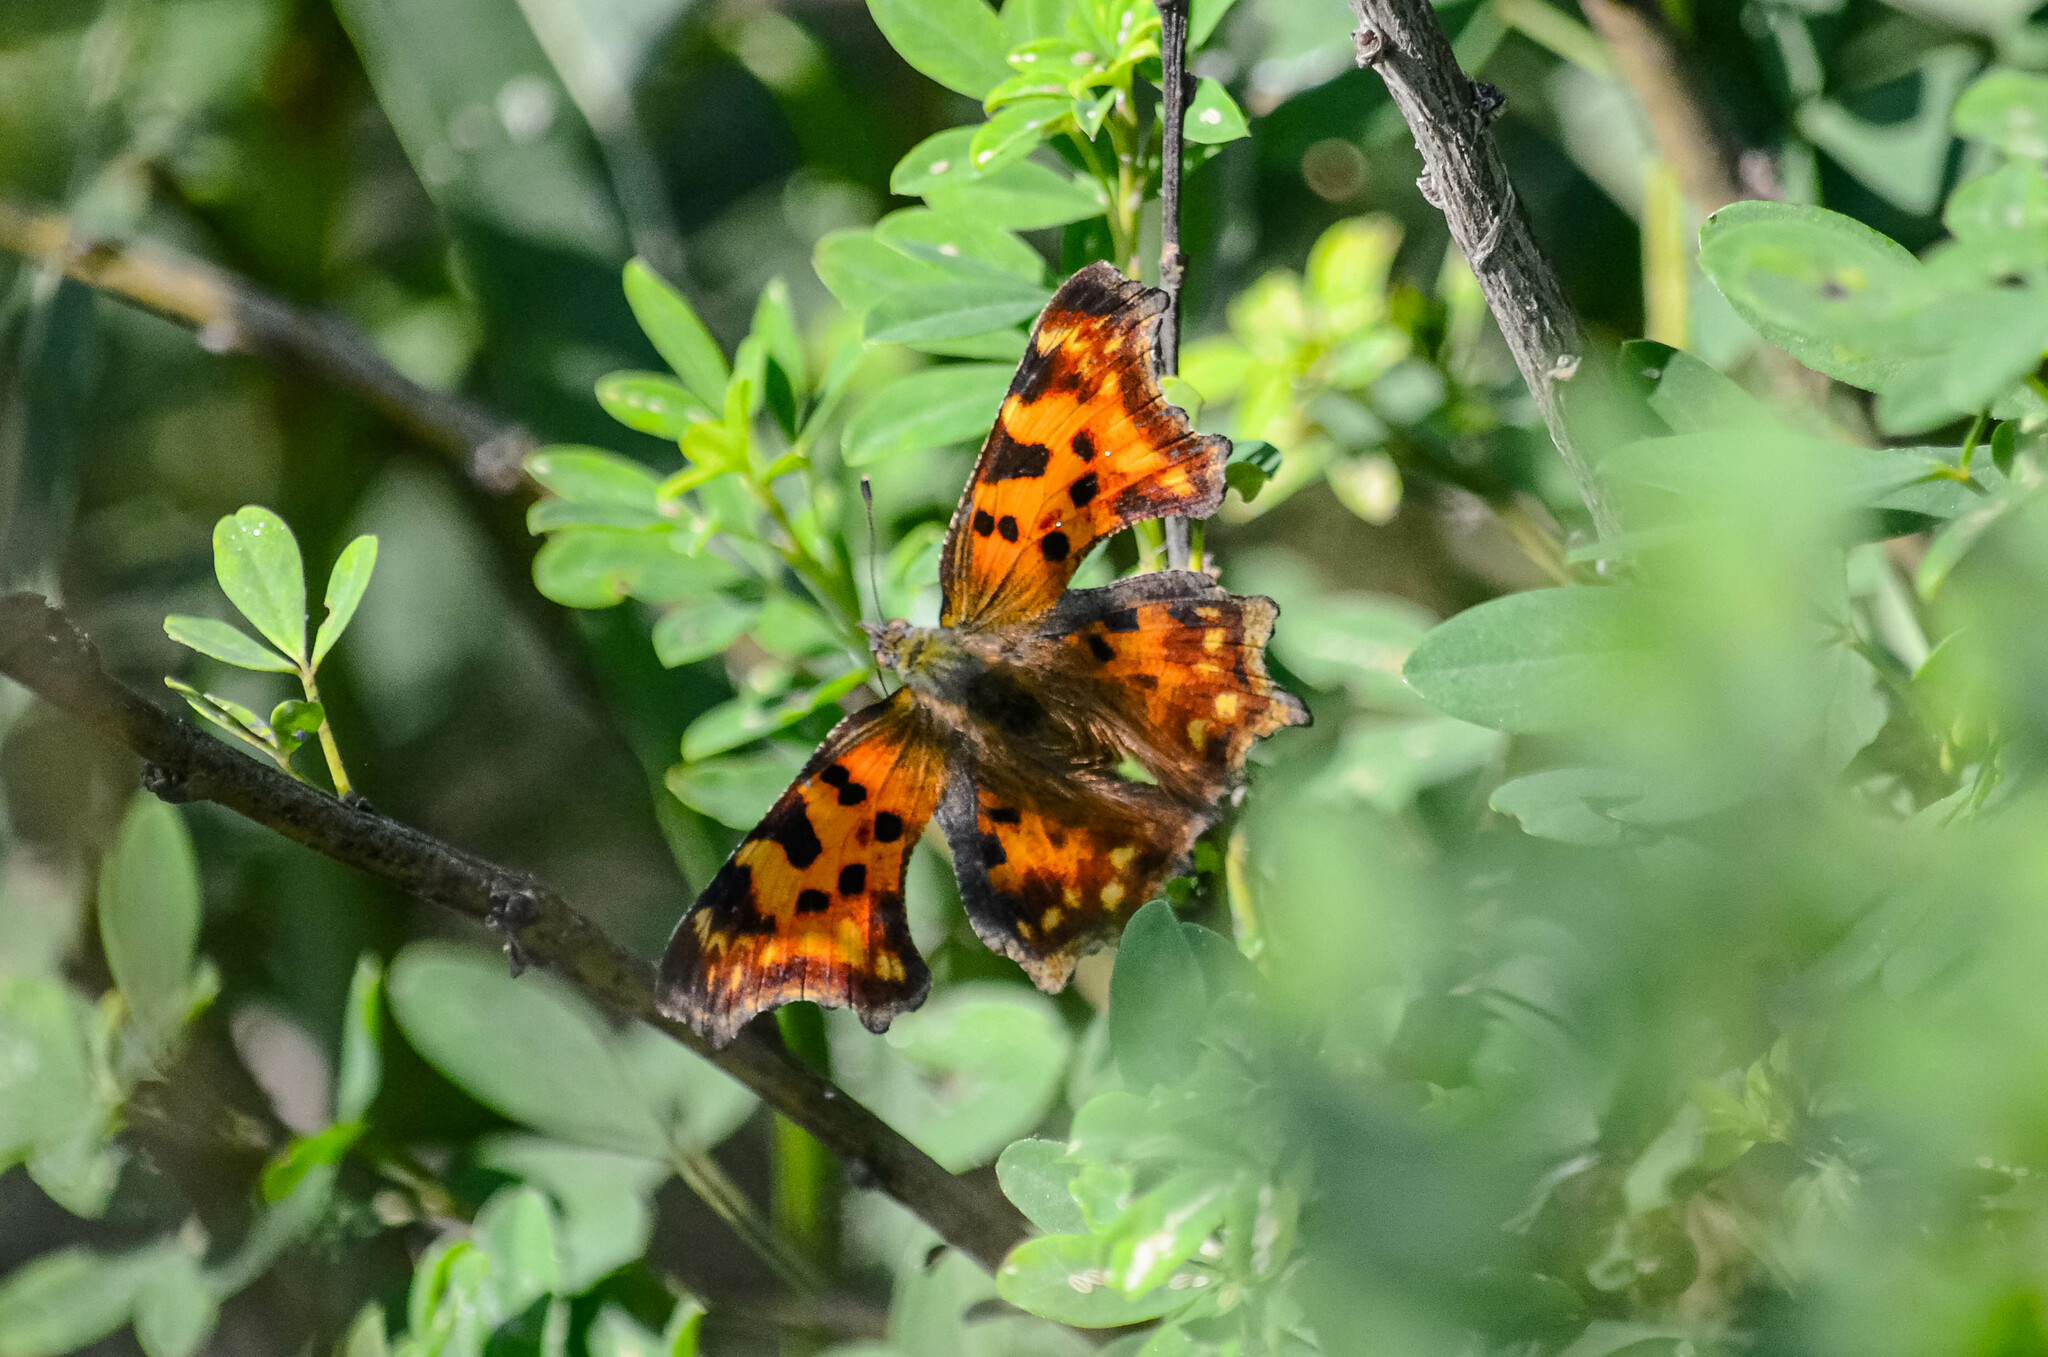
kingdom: Animalia
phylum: Arthropoda
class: Insecta
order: Lepidoptera
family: Nymphalidae
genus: Polygonia
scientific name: Polygonia c-album
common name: Comma
